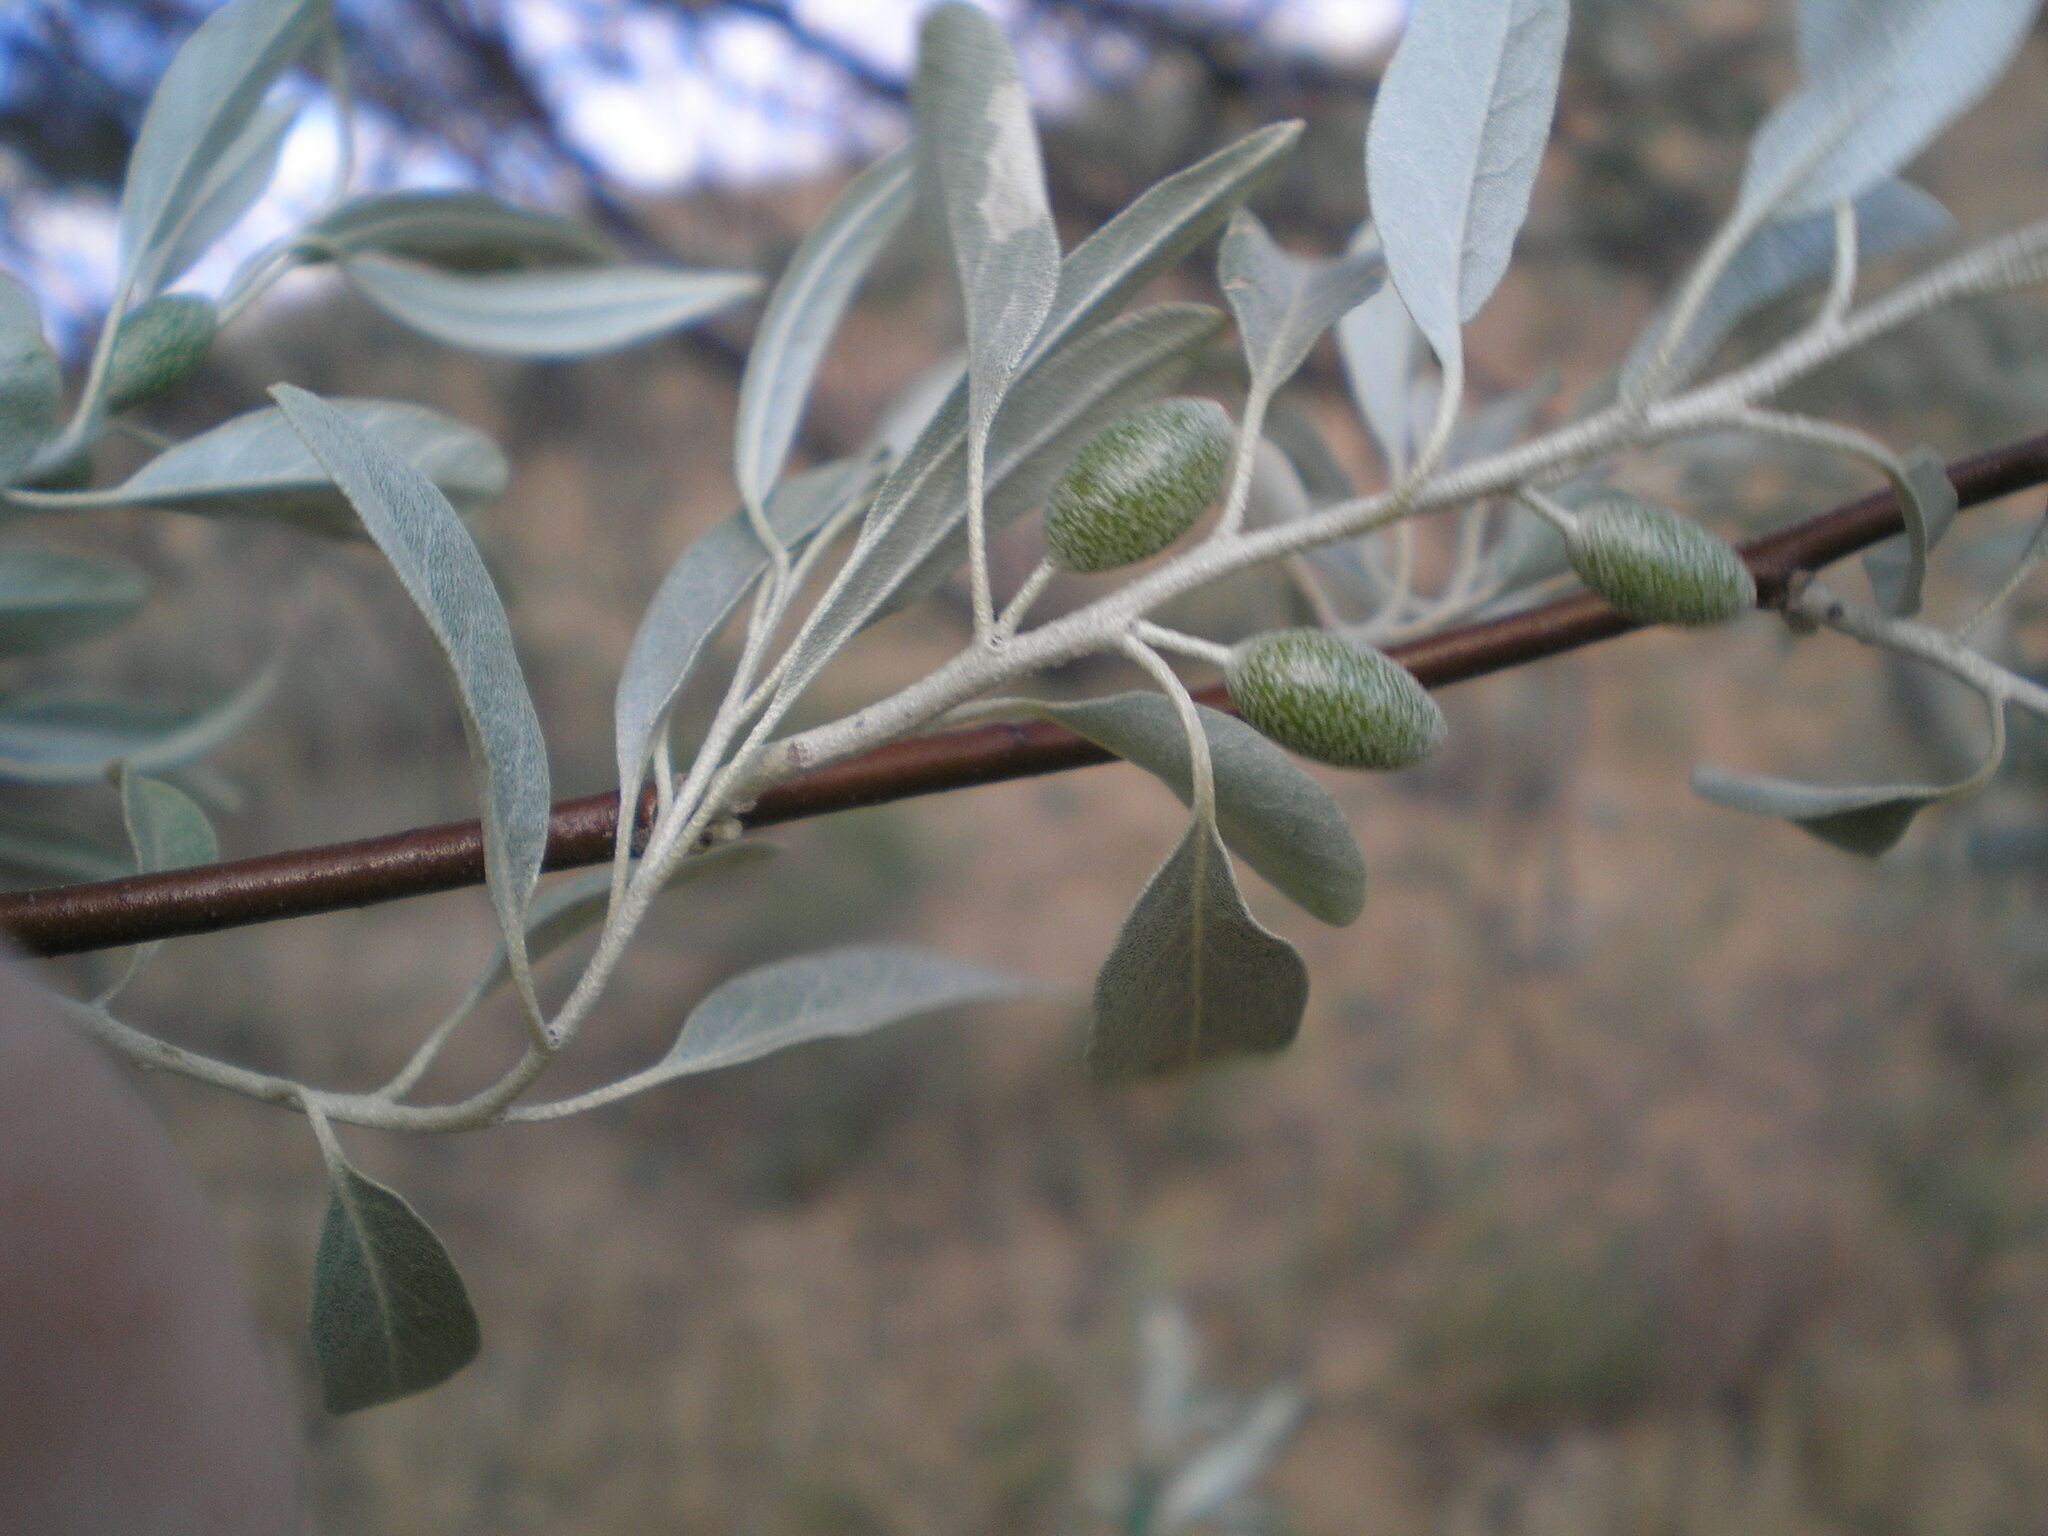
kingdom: Plantae
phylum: Tracheophyta
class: Magnoliopsida
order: Rosales
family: Elaeagnaceae
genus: Elaeagnus
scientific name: Elaeagnus angustifolia
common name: Russian olive
